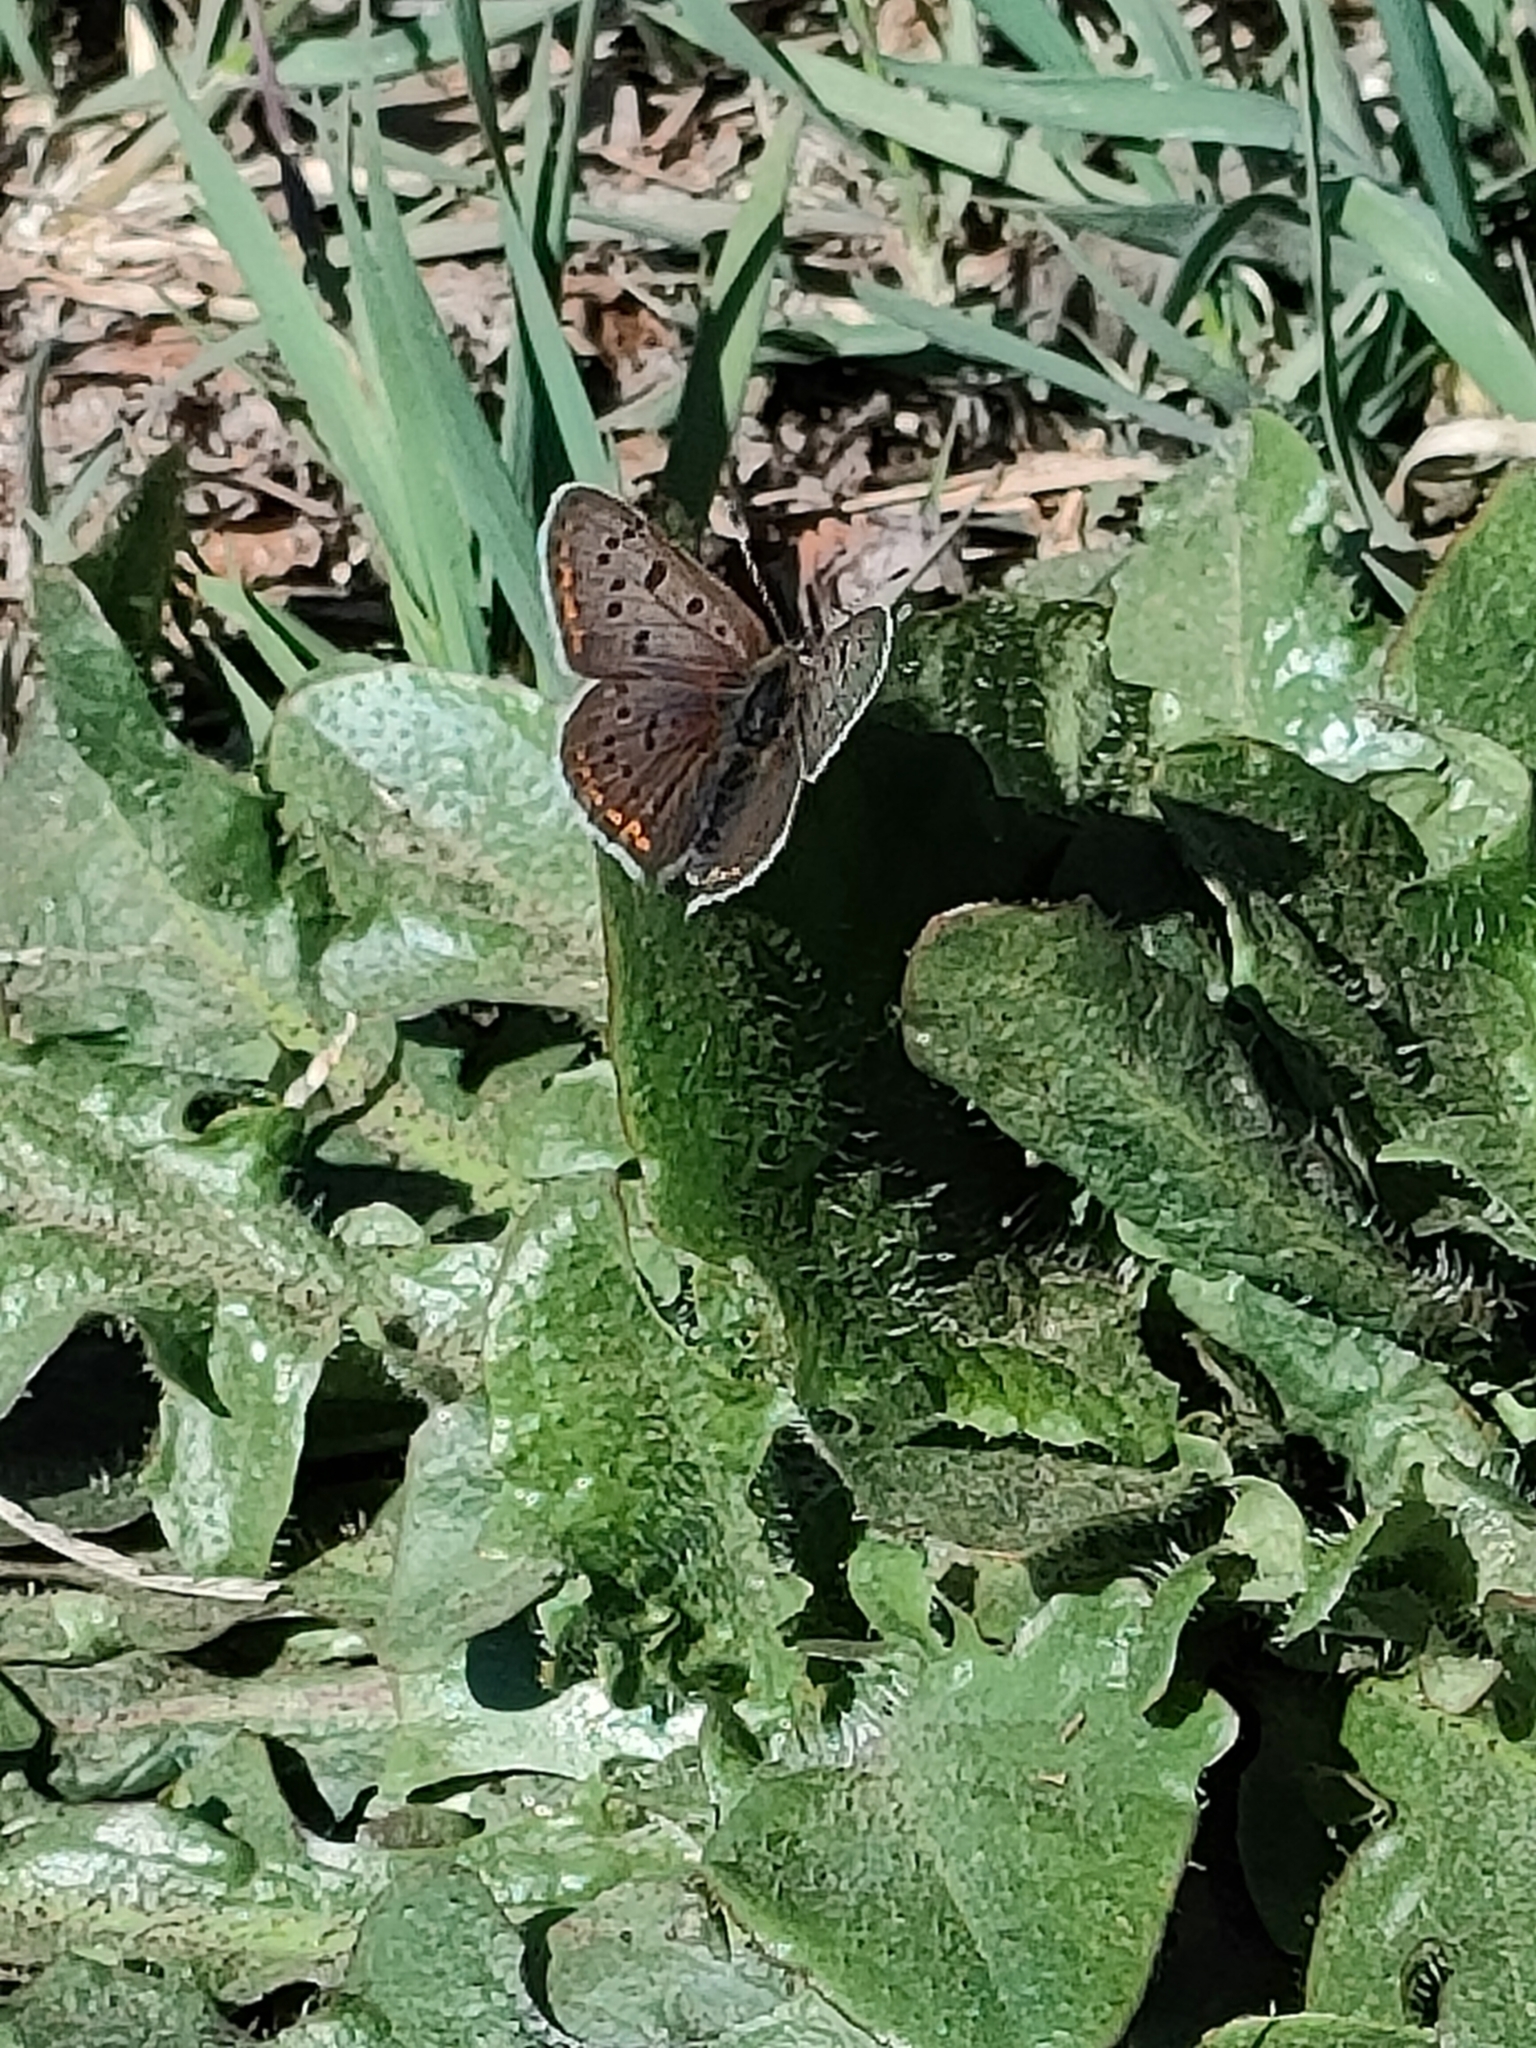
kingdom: Animalia
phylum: Arthropoda
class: Insecta
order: Lepidoptera
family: Lycaenidae
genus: Loweia
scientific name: Loweia tityrus
